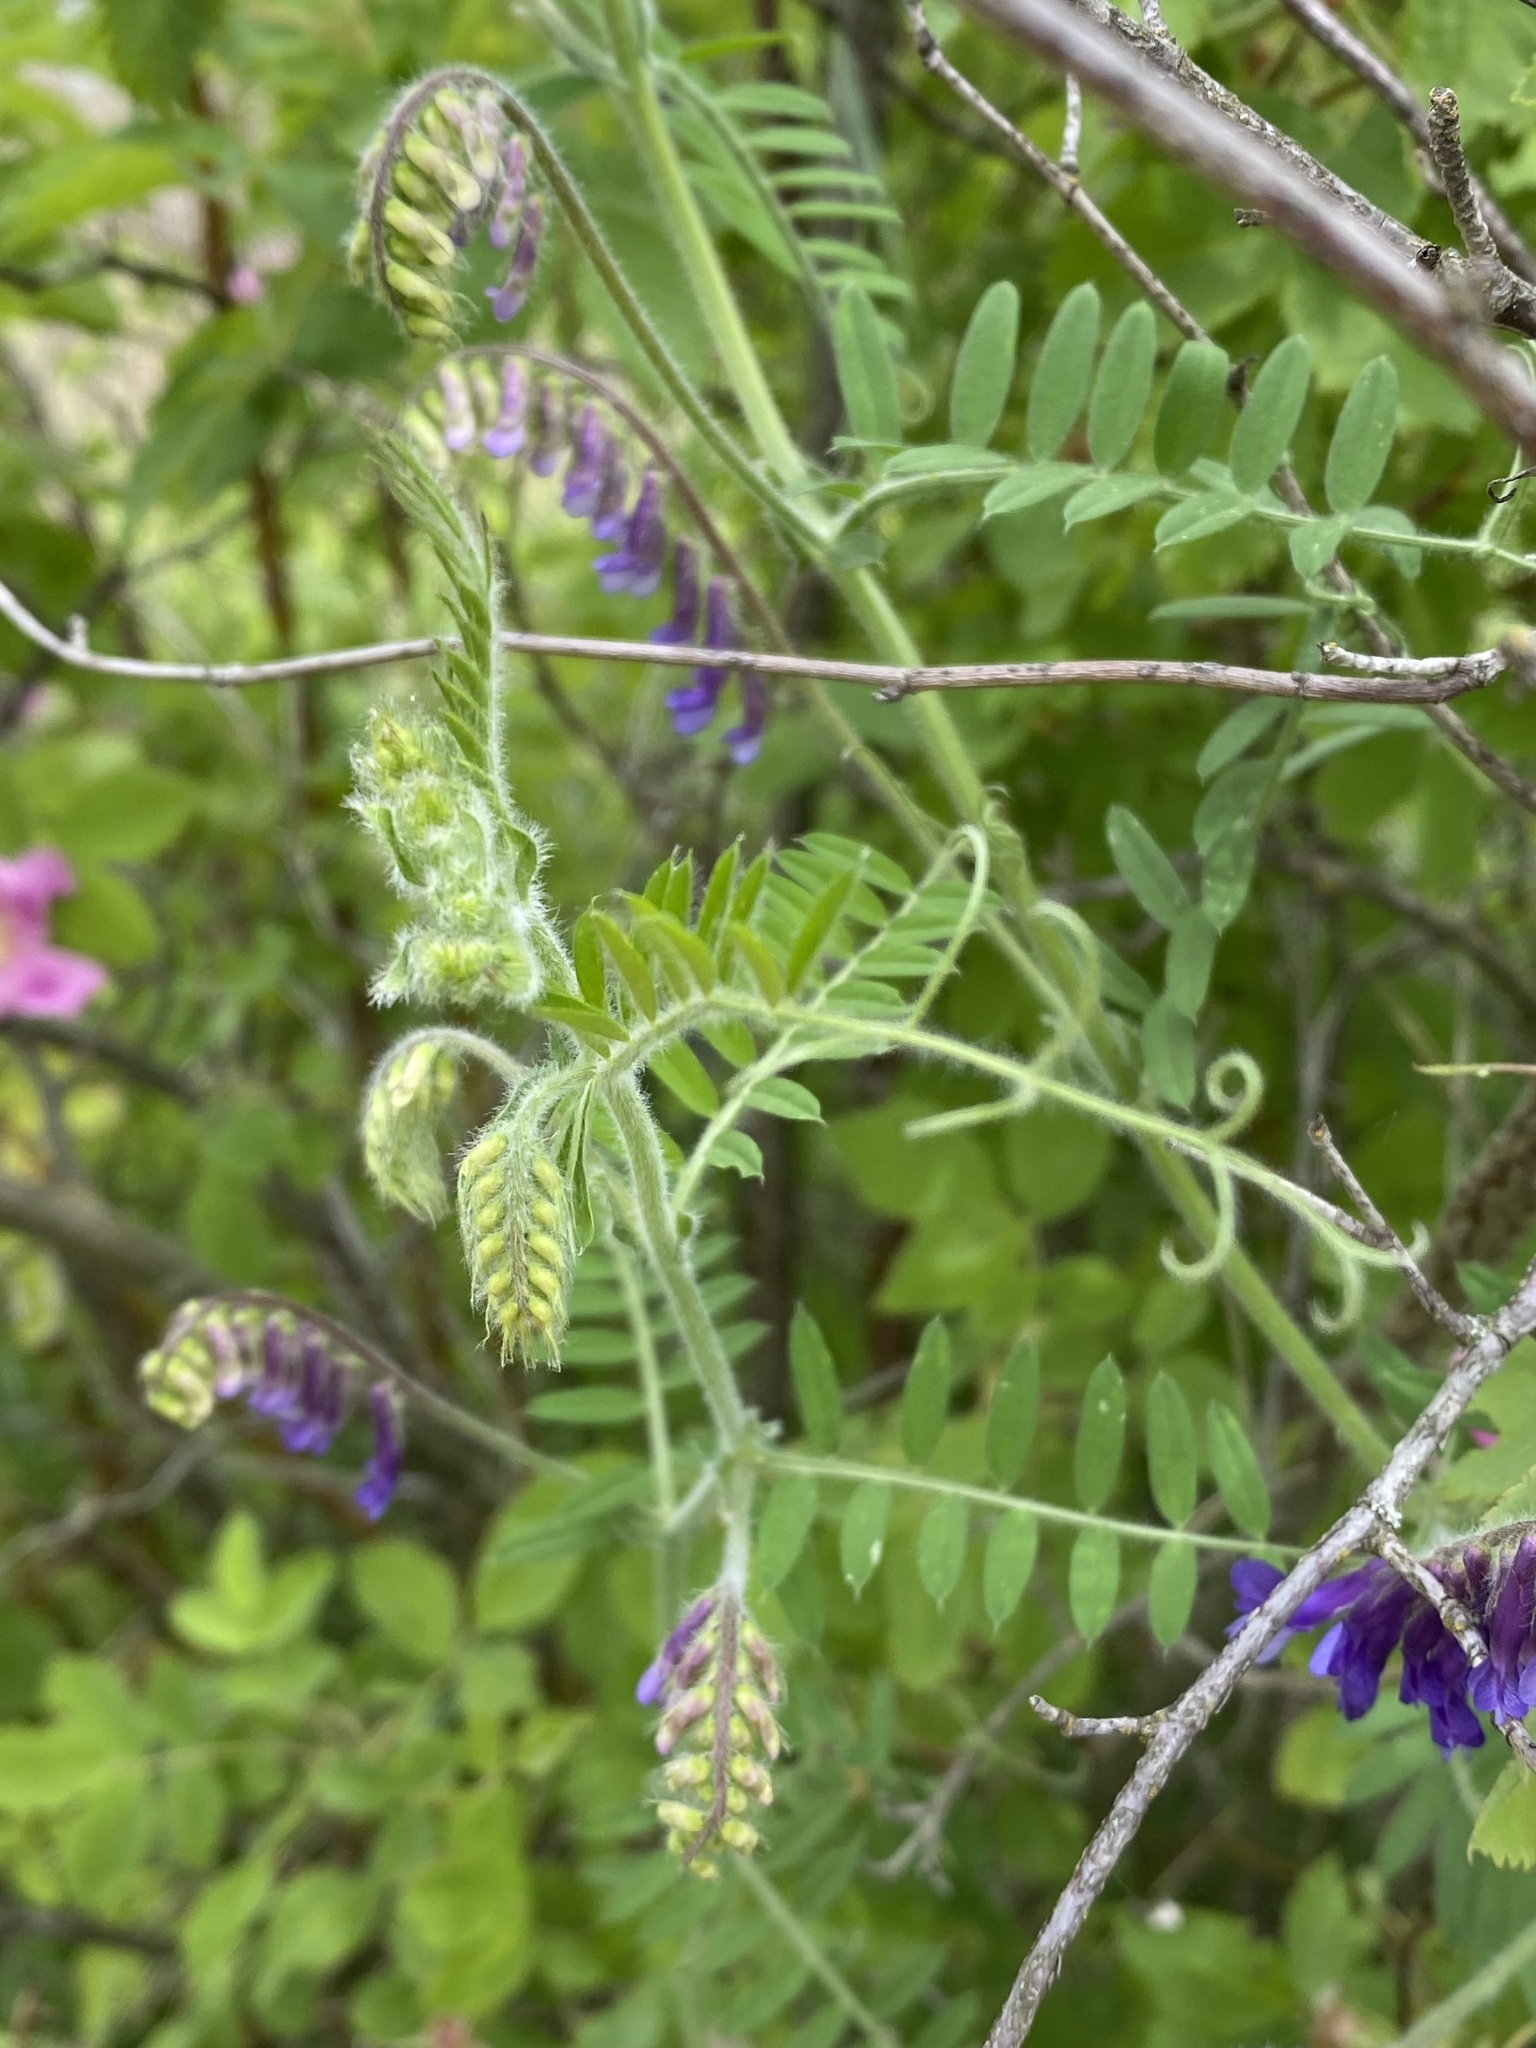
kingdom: Plantae
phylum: Tracheophyta
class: Magnoliopsida
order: Fabales
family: Fabaceae
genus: Vicia
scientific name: Vicia villosa
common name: Fodder vetch
